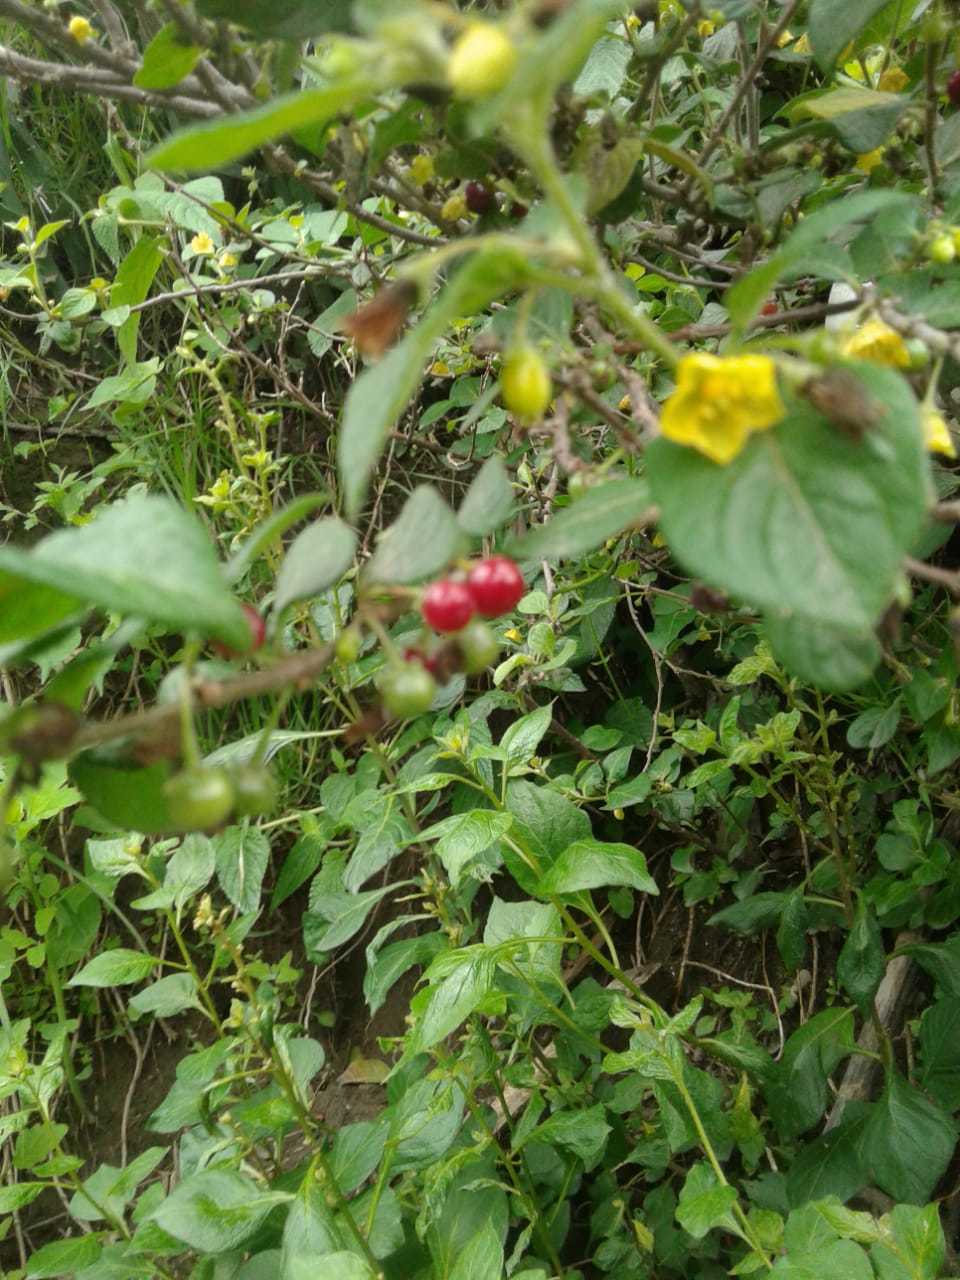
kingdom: Plantae
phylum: Tracheophyta
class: Magnoliopsida
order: Solanales
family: Solanaceae
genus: Capsicum
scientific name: Capsicum rhomboideum
